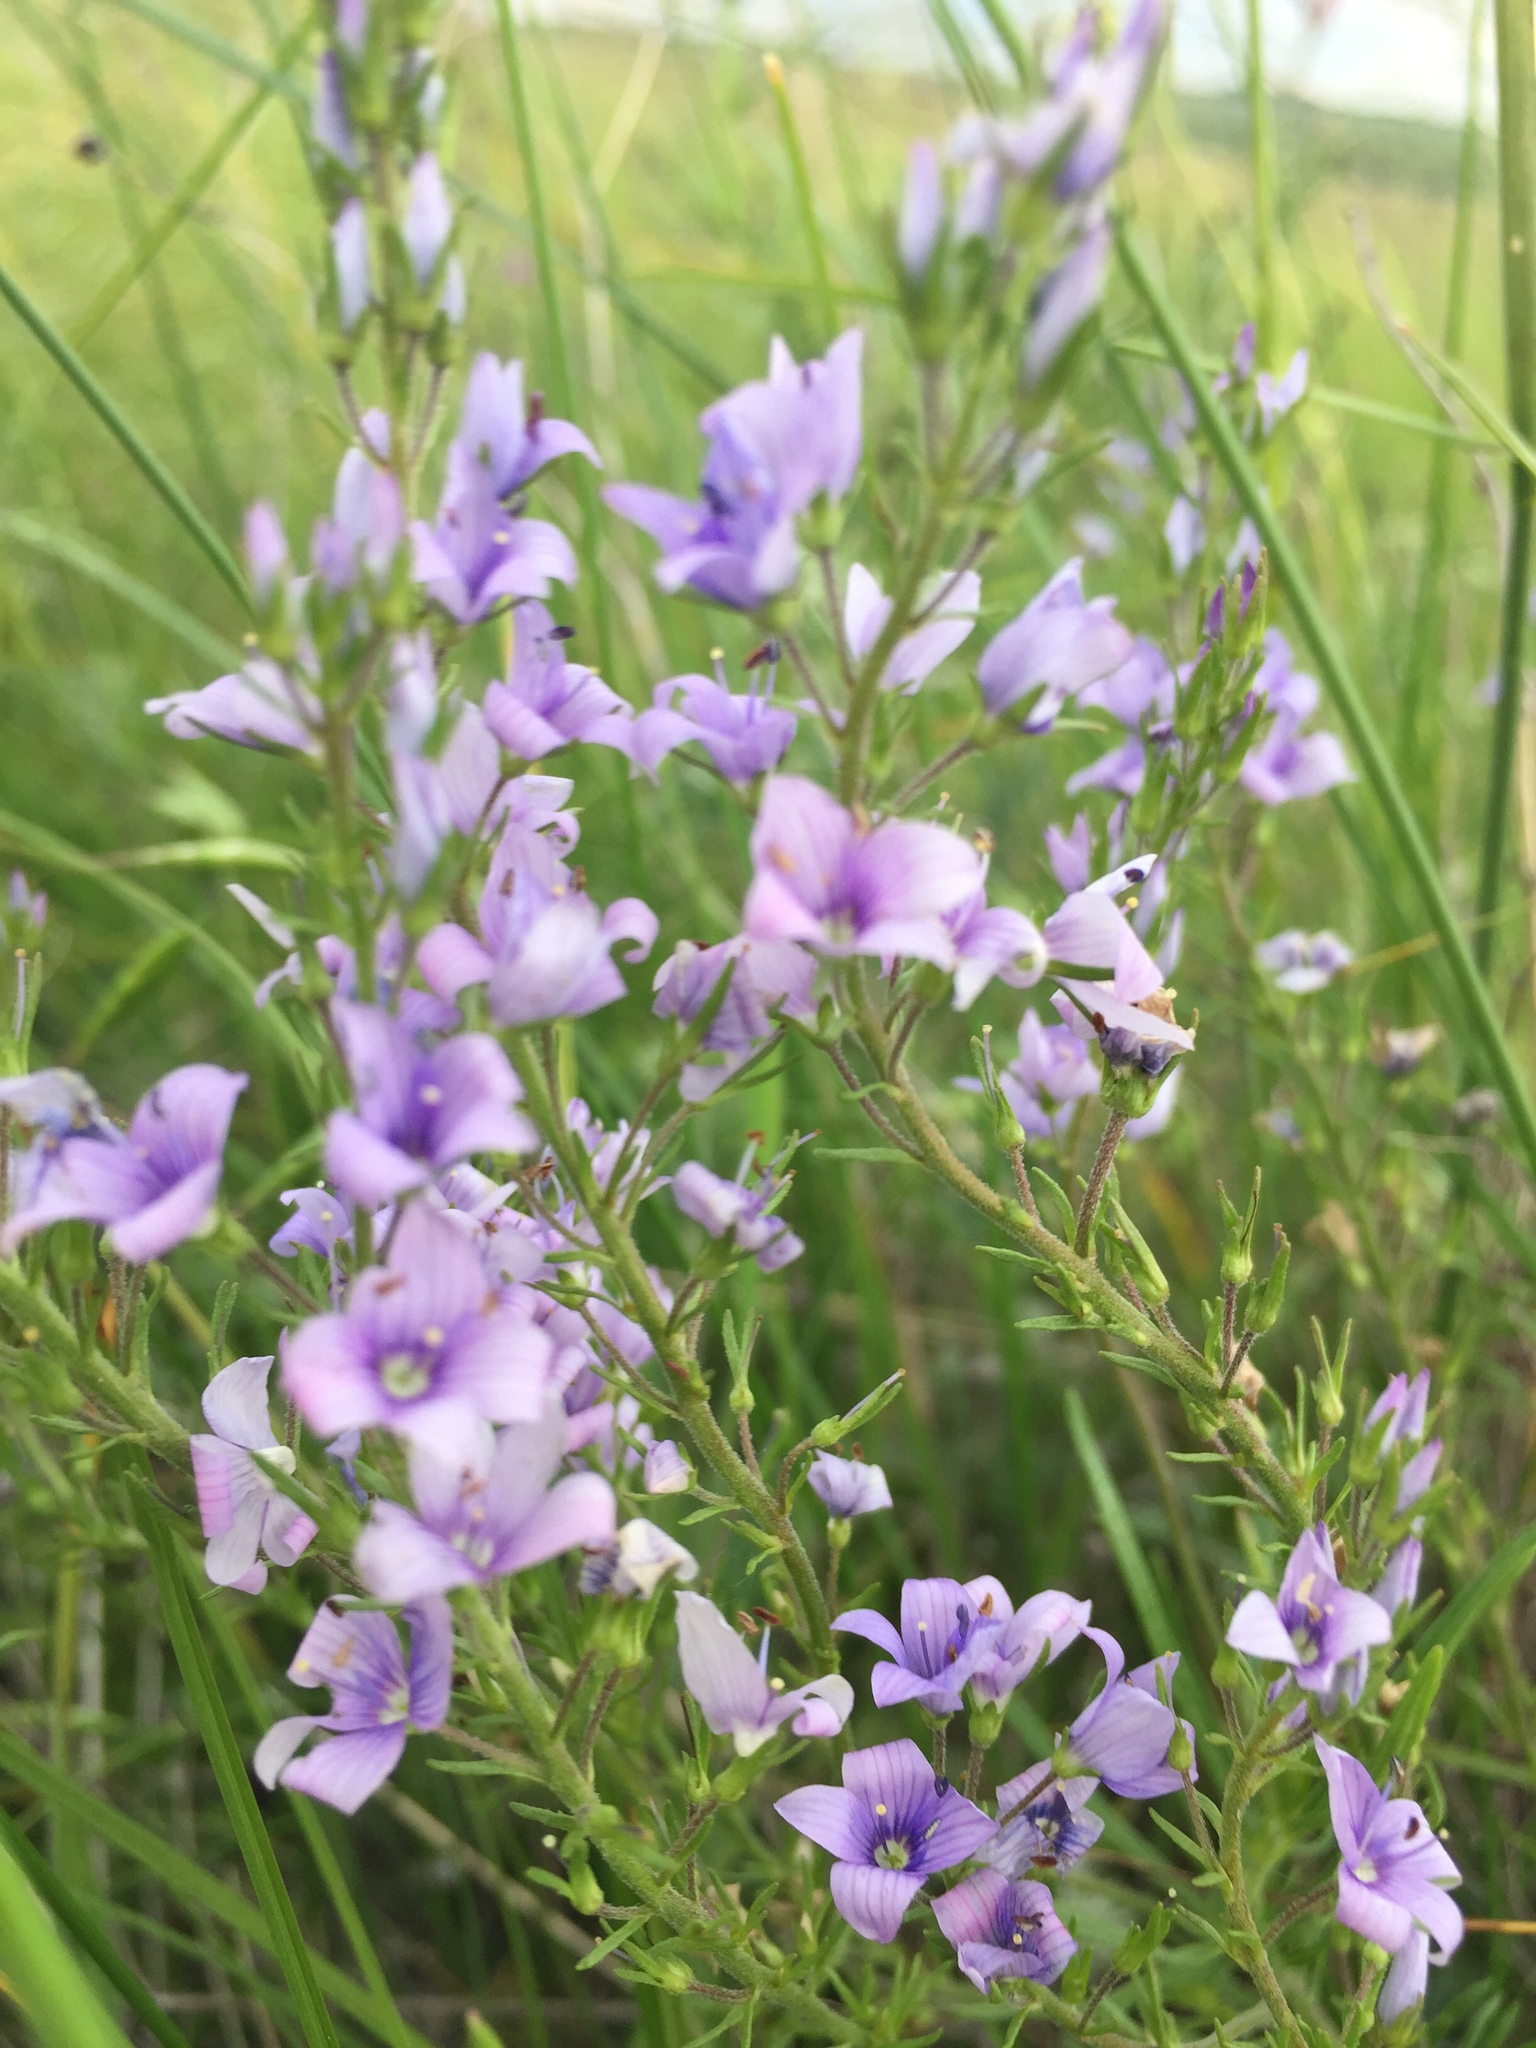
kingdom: Plantae
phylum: Tracheophyta
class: Magnoliopsida
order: Lamiales
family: Plantaginaceae
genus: Veronica
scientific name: Veronica austriaca
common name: Large speedwell
